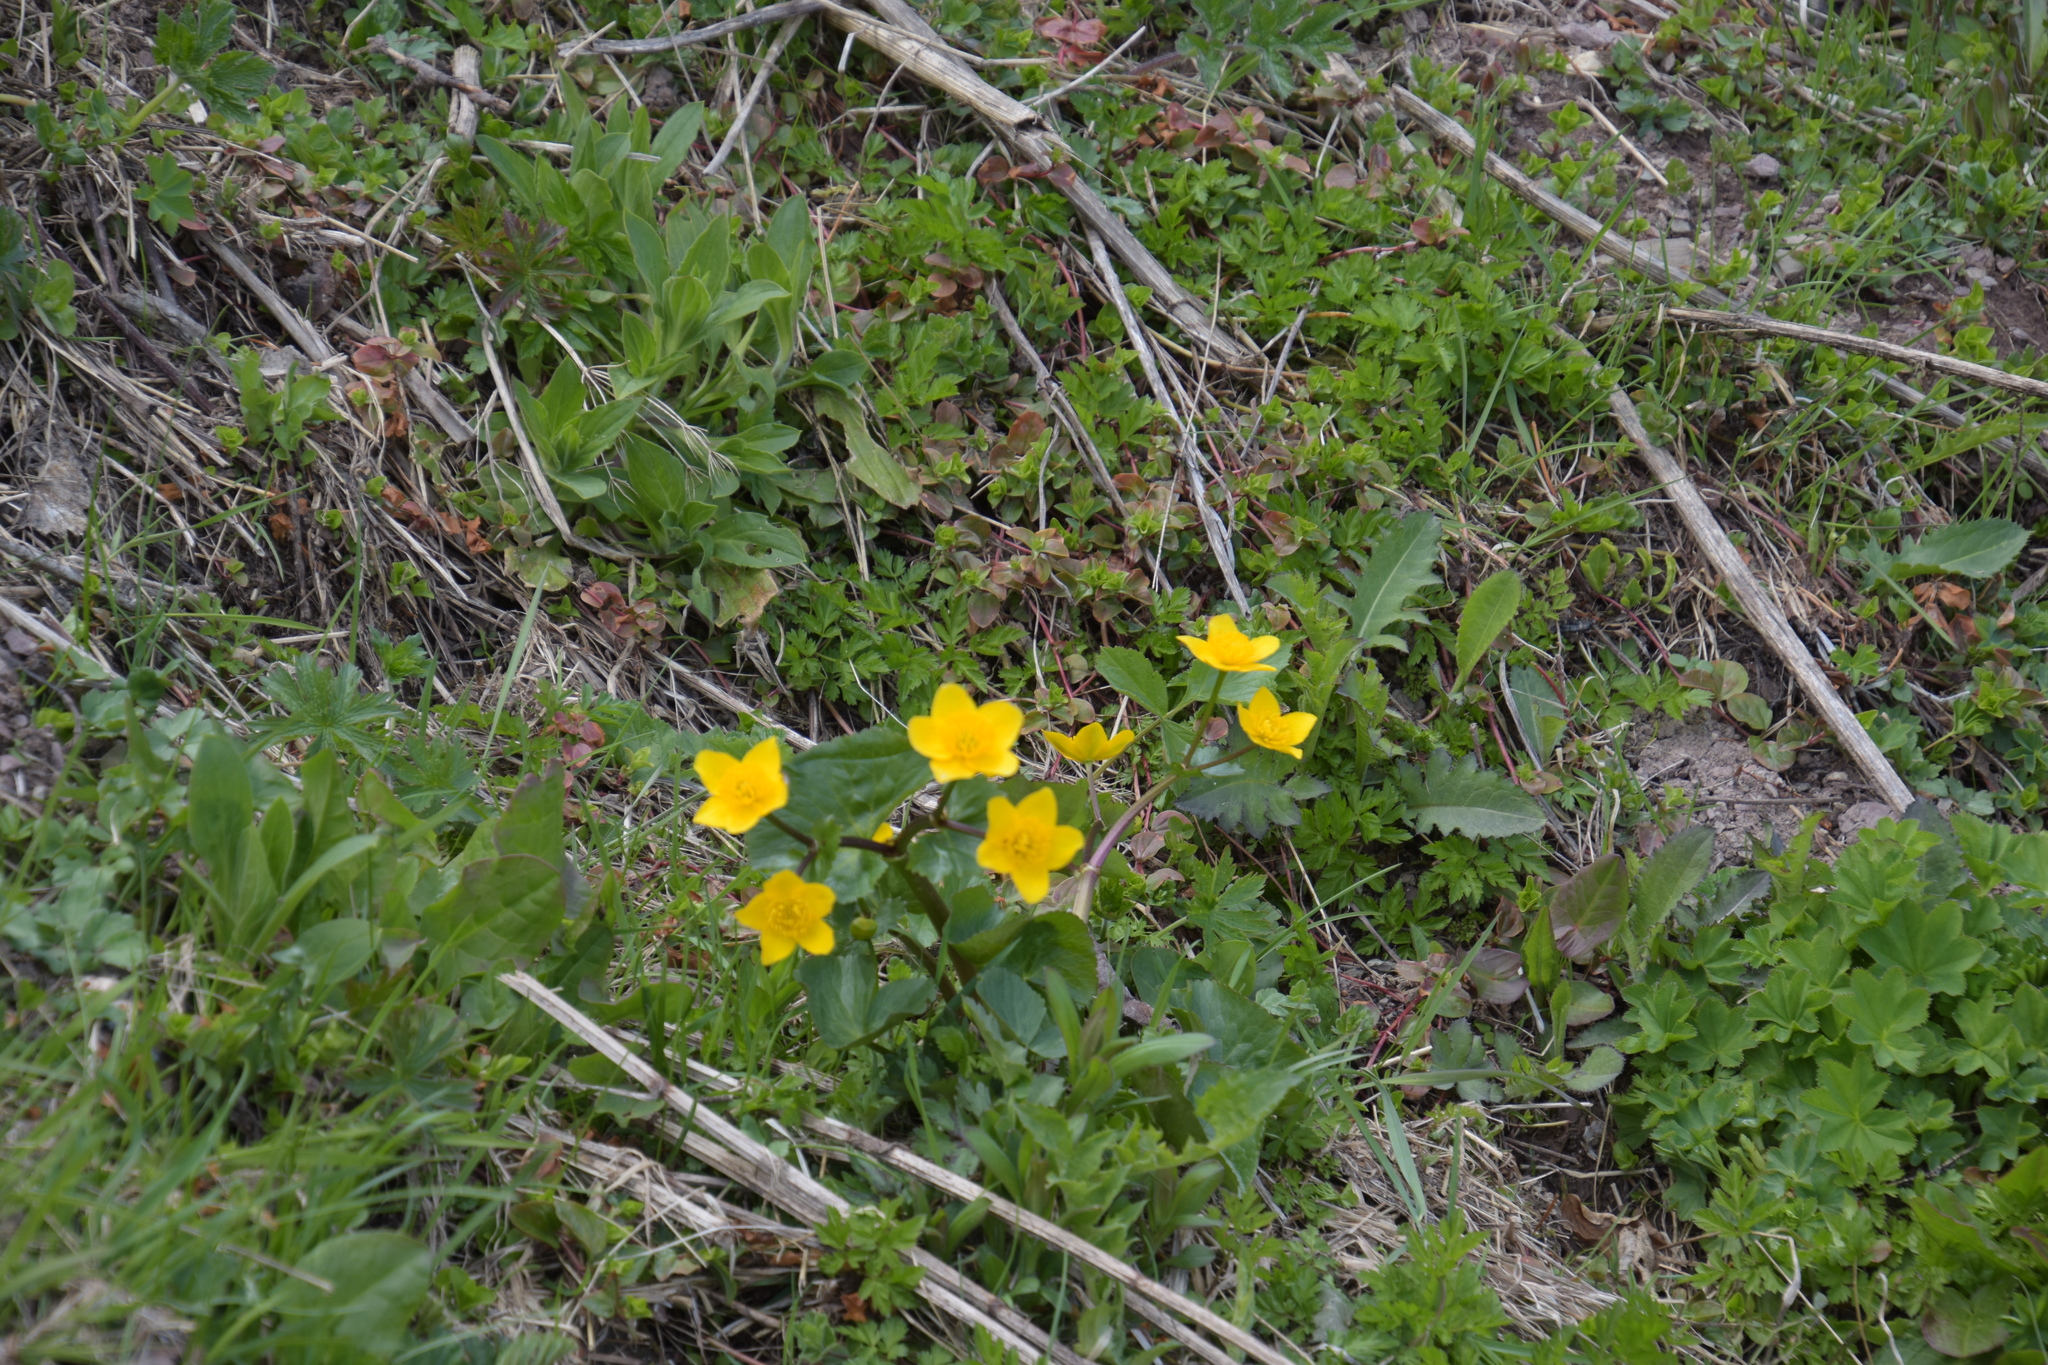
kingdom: Plantae
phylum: Tracheophyta
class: Magnoliopsida
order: Ranunculales
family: Ranunculaceae
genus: Caltha
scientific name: Caltha palustris
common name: Marsh marigold
